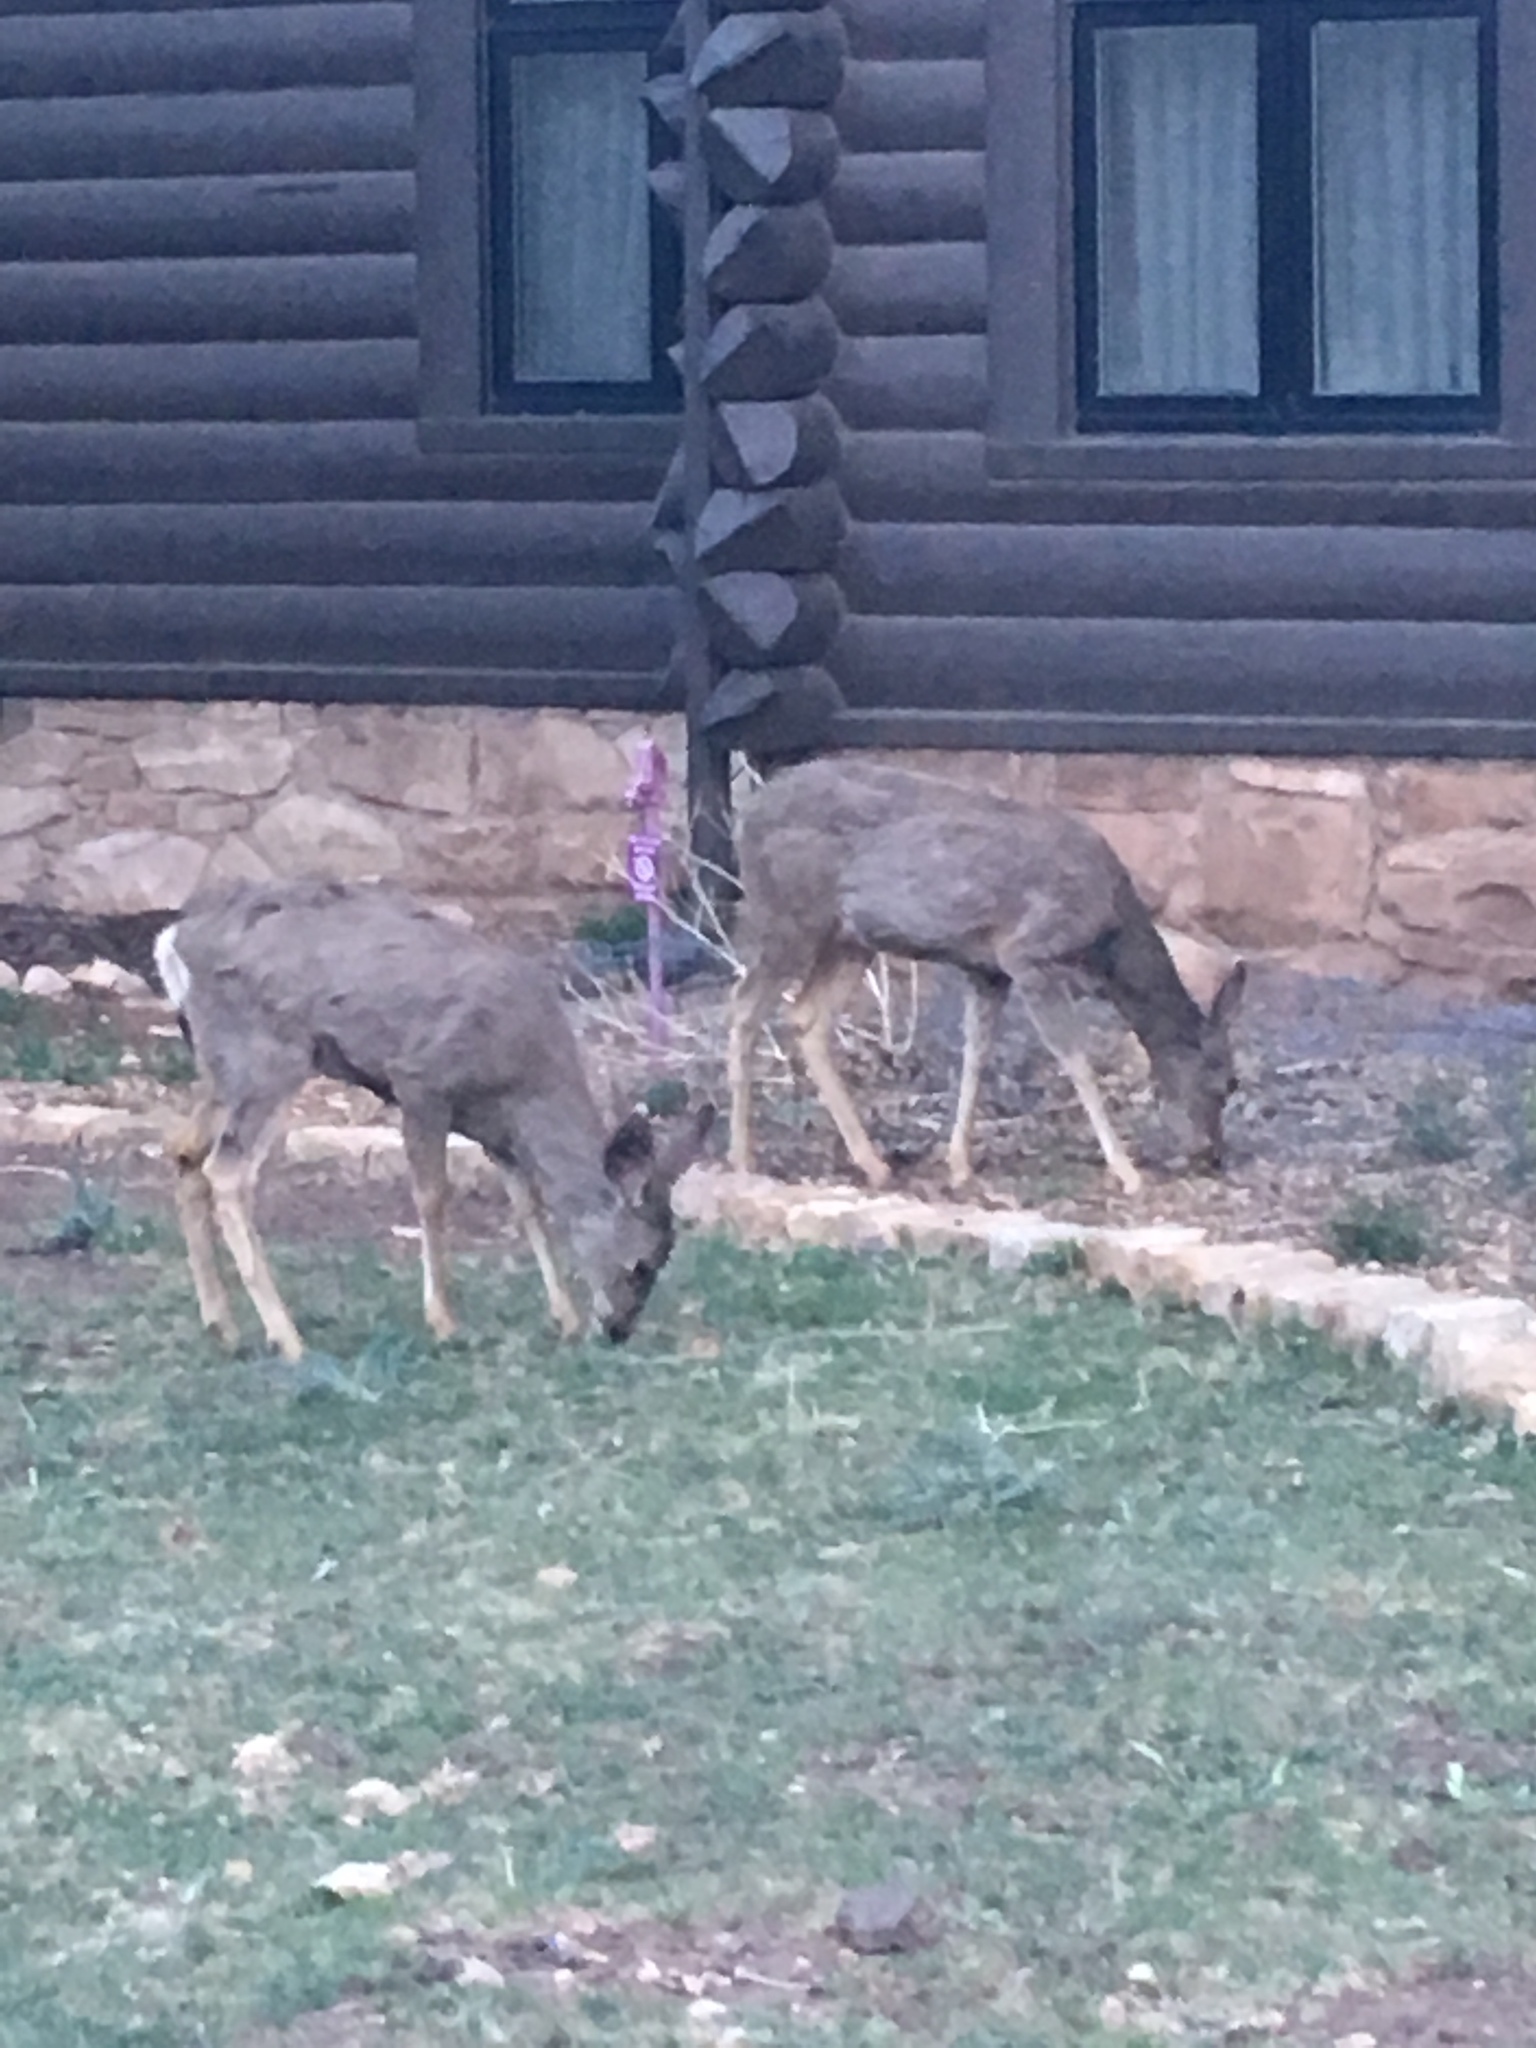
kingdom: Animalia
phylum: Chordata
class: Mammalia
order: Artiodactyla
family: Cervidae
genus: Odocoileus
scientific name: Odocoileus hemionus
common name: Mule deer
